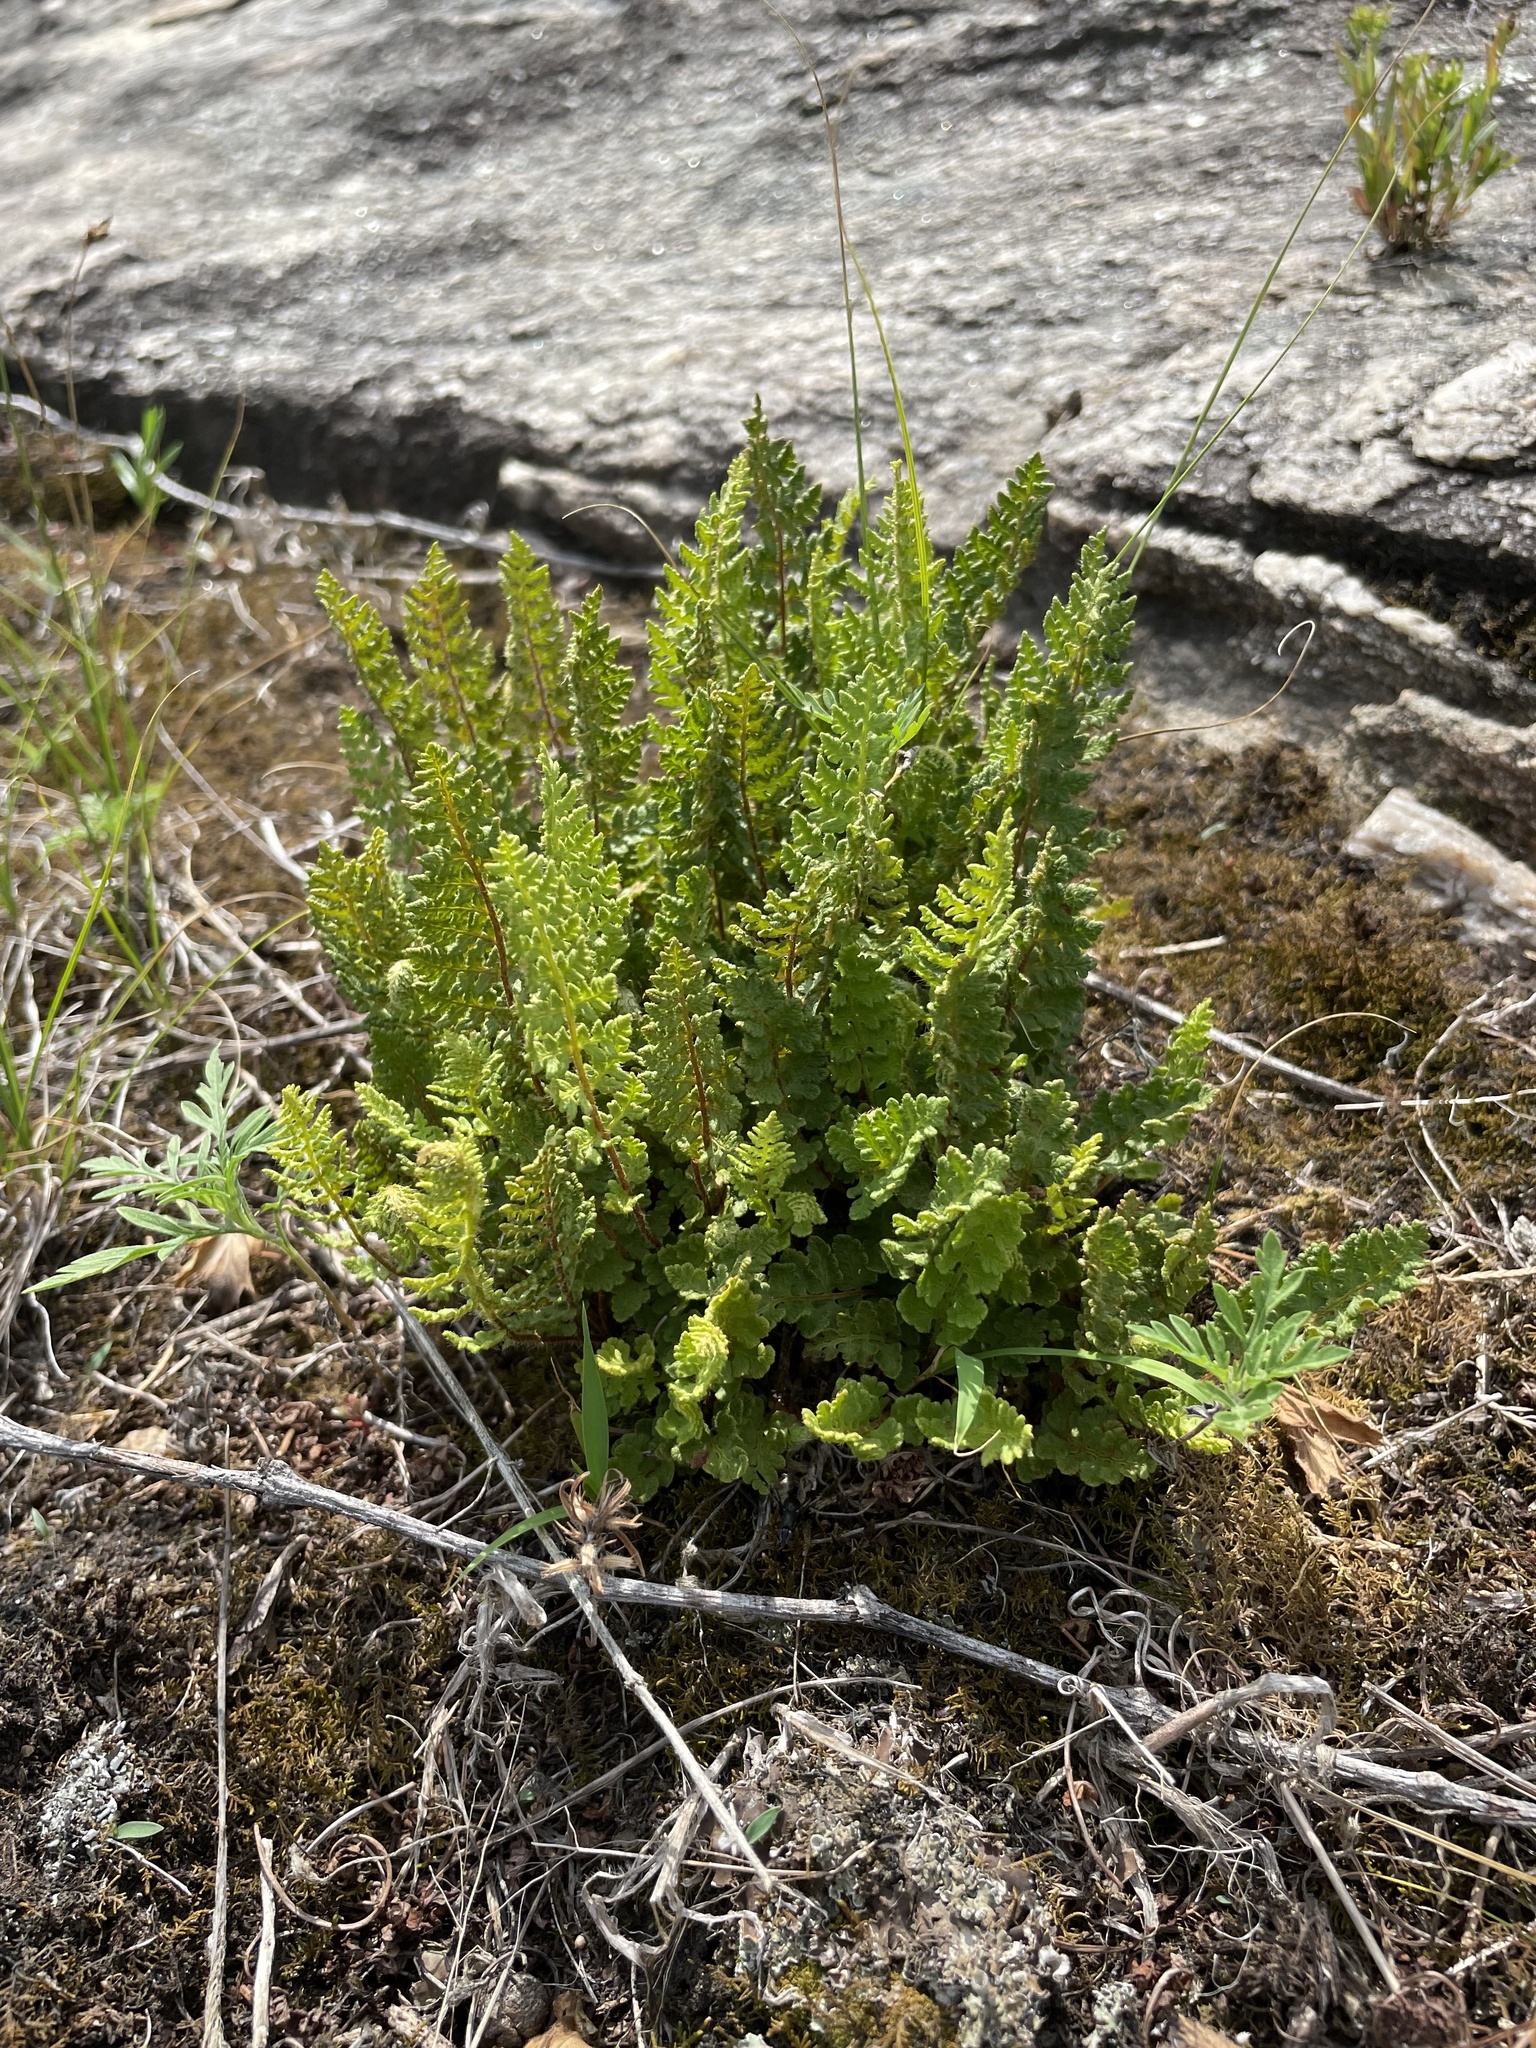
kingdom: Plantae
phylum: Tracheophyta
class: Polypodiopsida
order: Polypodiales
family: Woodsiaceae
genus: Woodsia
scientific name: Woodsia ilvensis
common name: Fragrant woodsia
